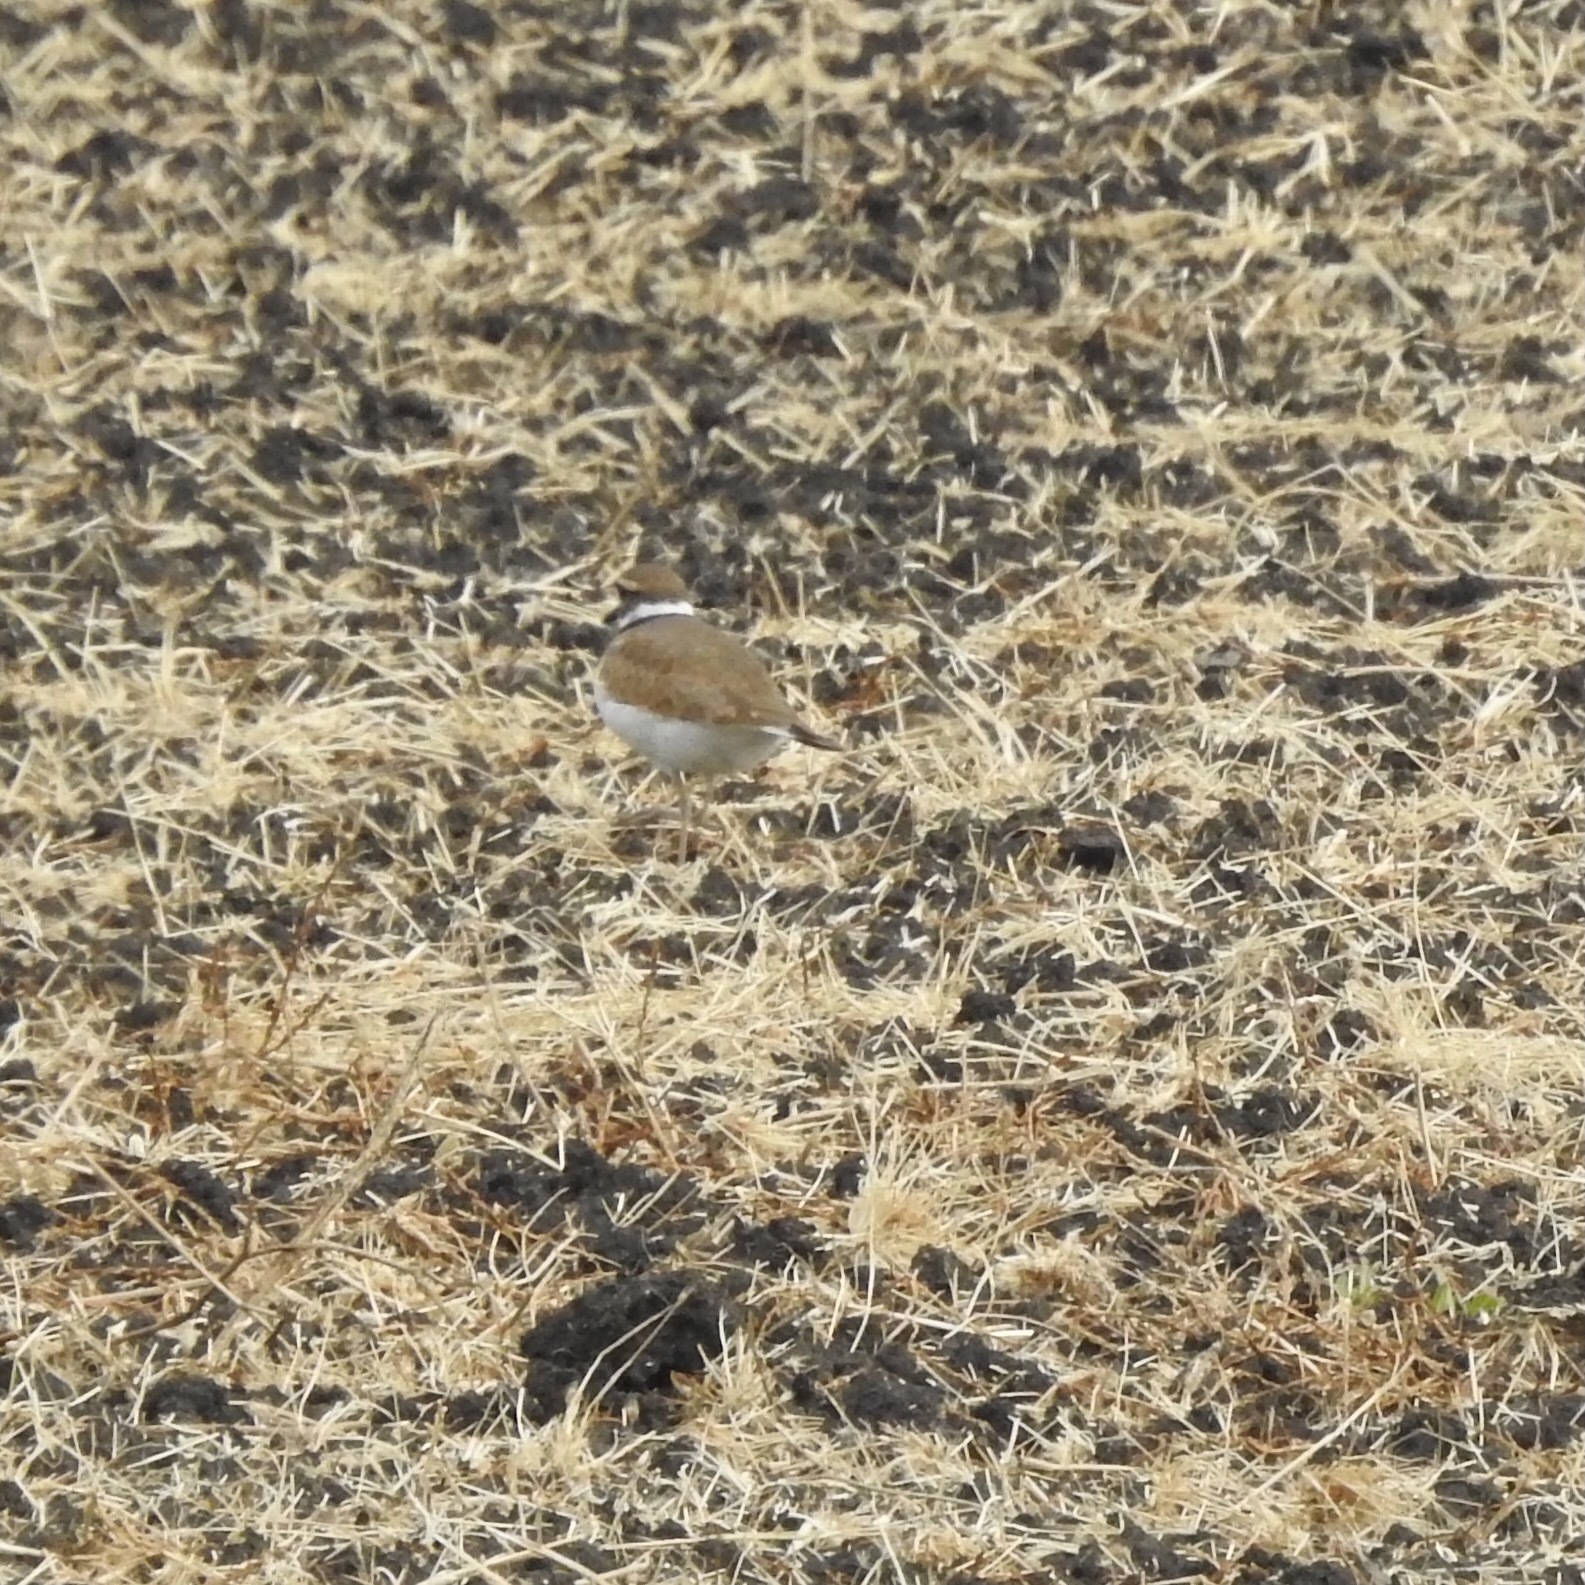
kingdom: Animalia
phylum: Chordata
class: Aves
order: Charadriiformes
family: Charadriidae
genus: Charadrius
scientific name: Charadrius vociferus
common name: Killdeer
